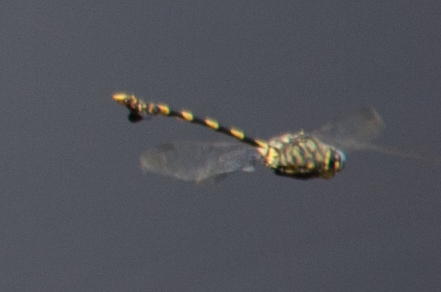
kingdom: Animalia
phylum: Arthropoda
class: Insecta
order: Odonata
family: Gomphidae
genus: Ictinogomphus
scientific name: Ictinogomphus ferox
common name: Common tiger
